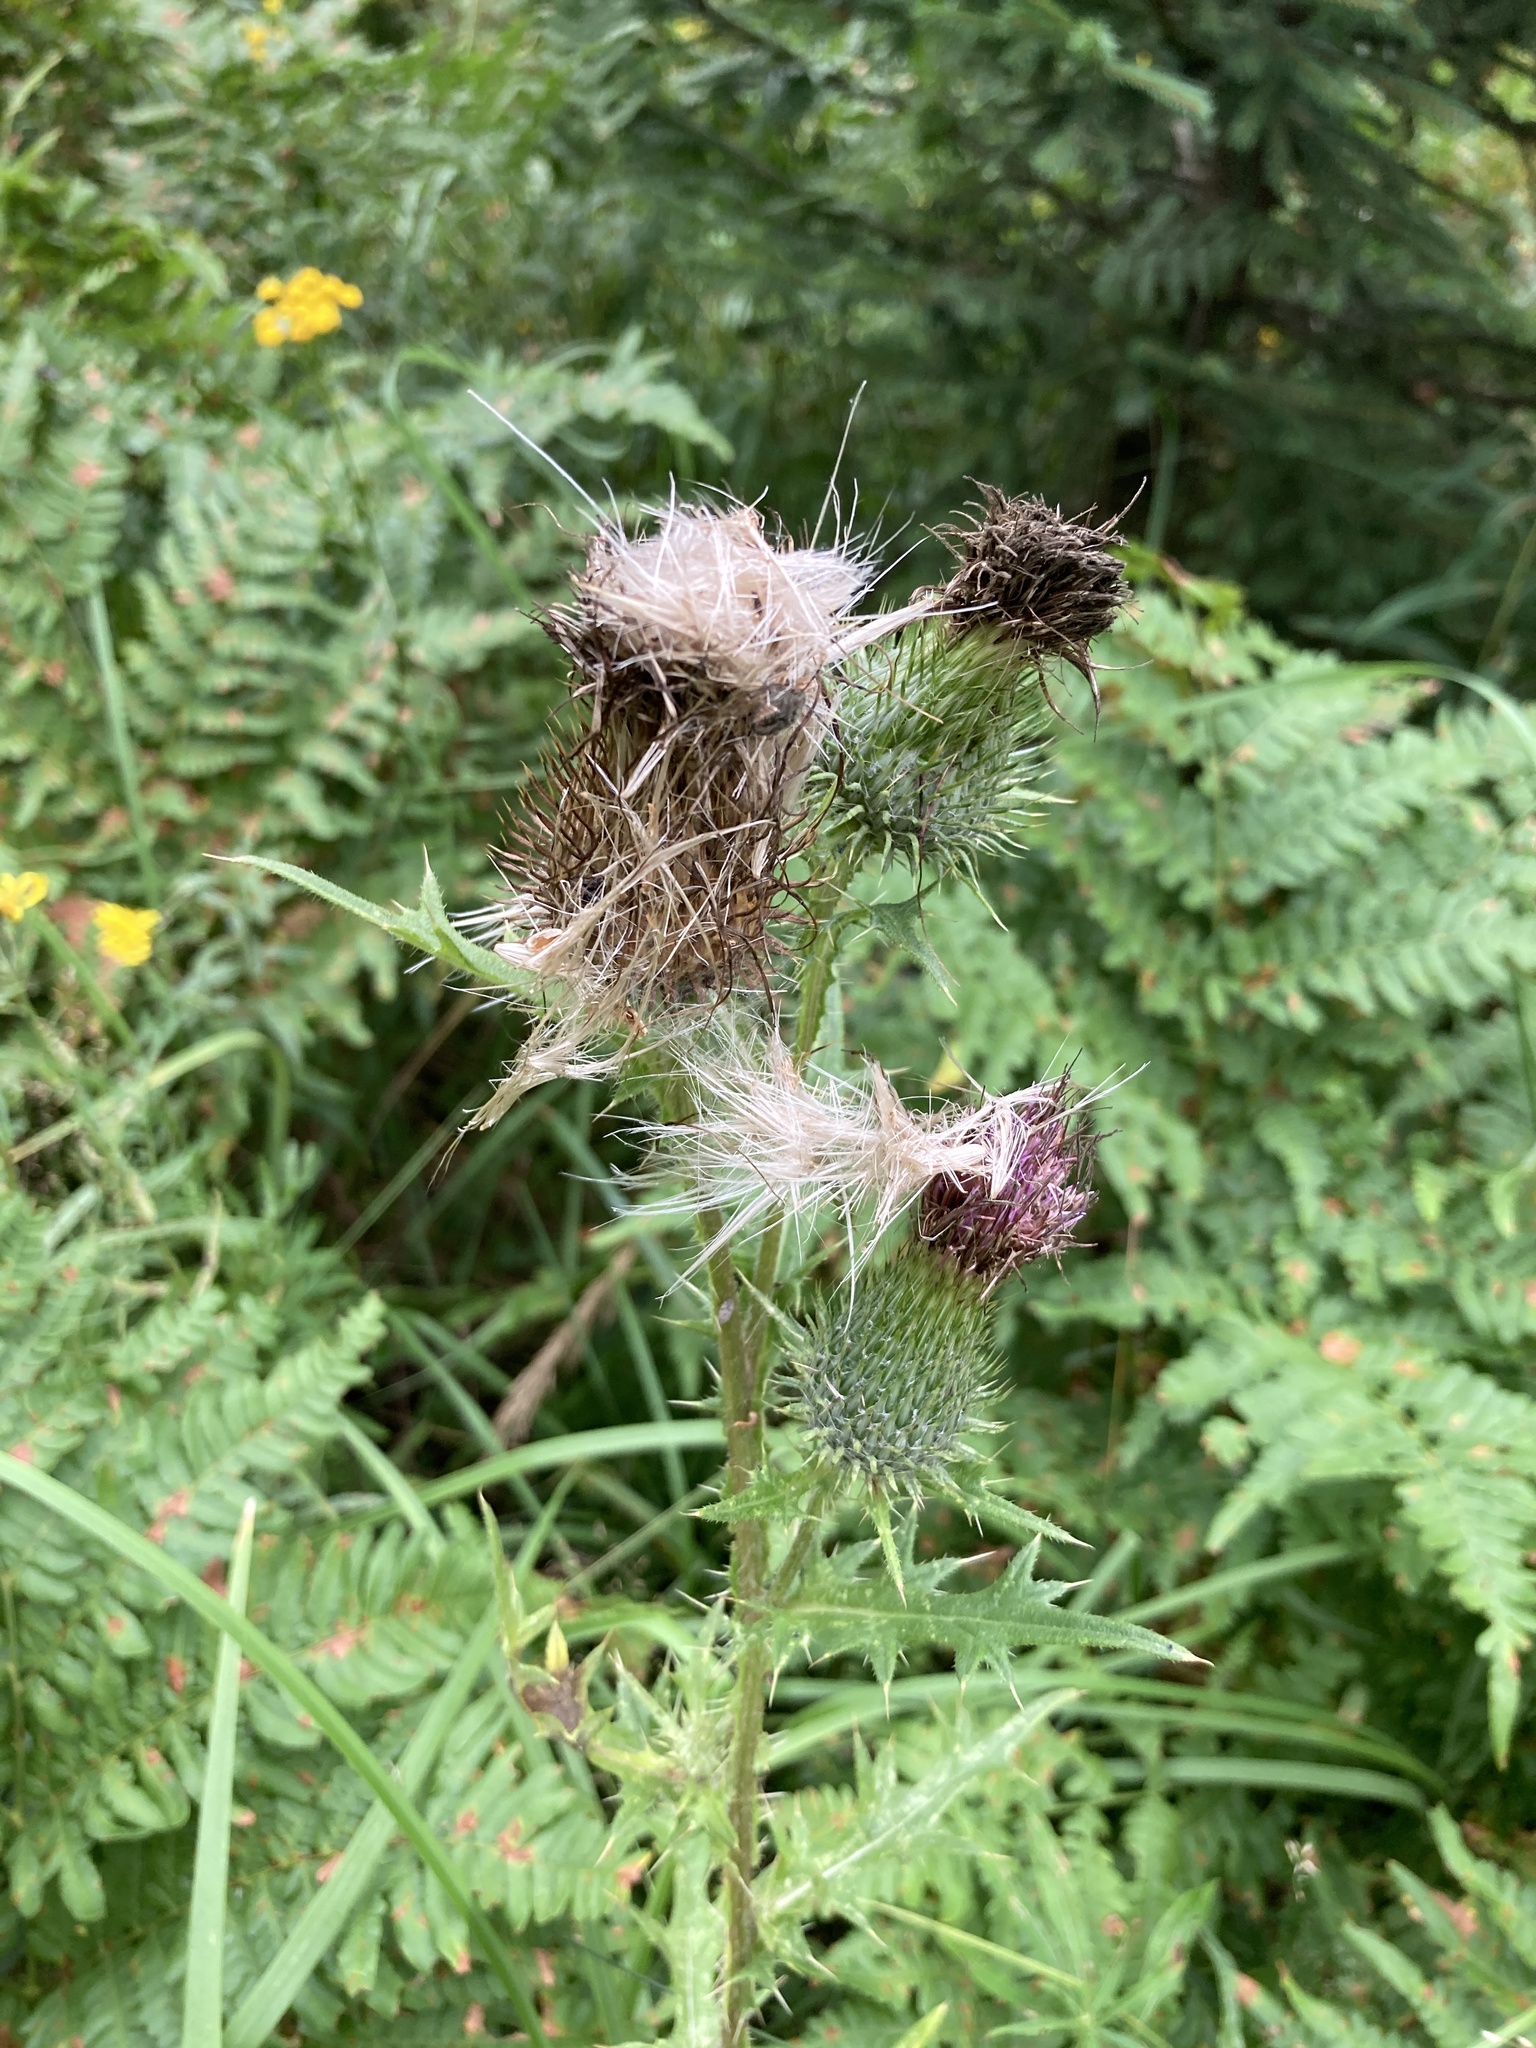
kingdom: Plantae
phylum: Tracheophyta
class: Magnoliopsida
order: Asterales
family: Asteraceae
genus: Cirsium
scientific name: Cirsium vulgare
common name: Bull thistle
